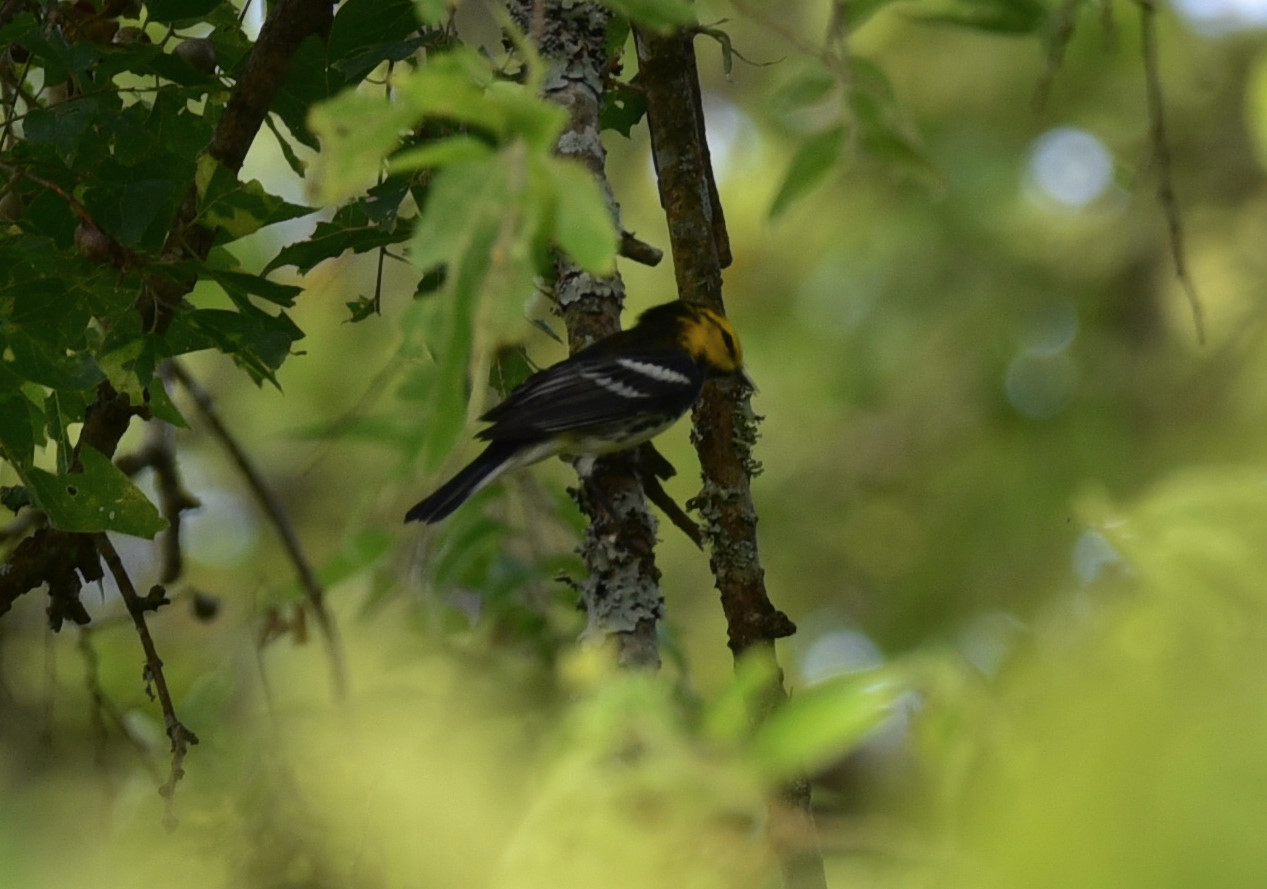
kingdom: Animalia
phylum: Chordata
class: Aves
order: Passeriformes
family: Parulidae
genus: Setophaga
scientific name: Setophaga chrysoparia
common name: Golden-cheeked warbler
